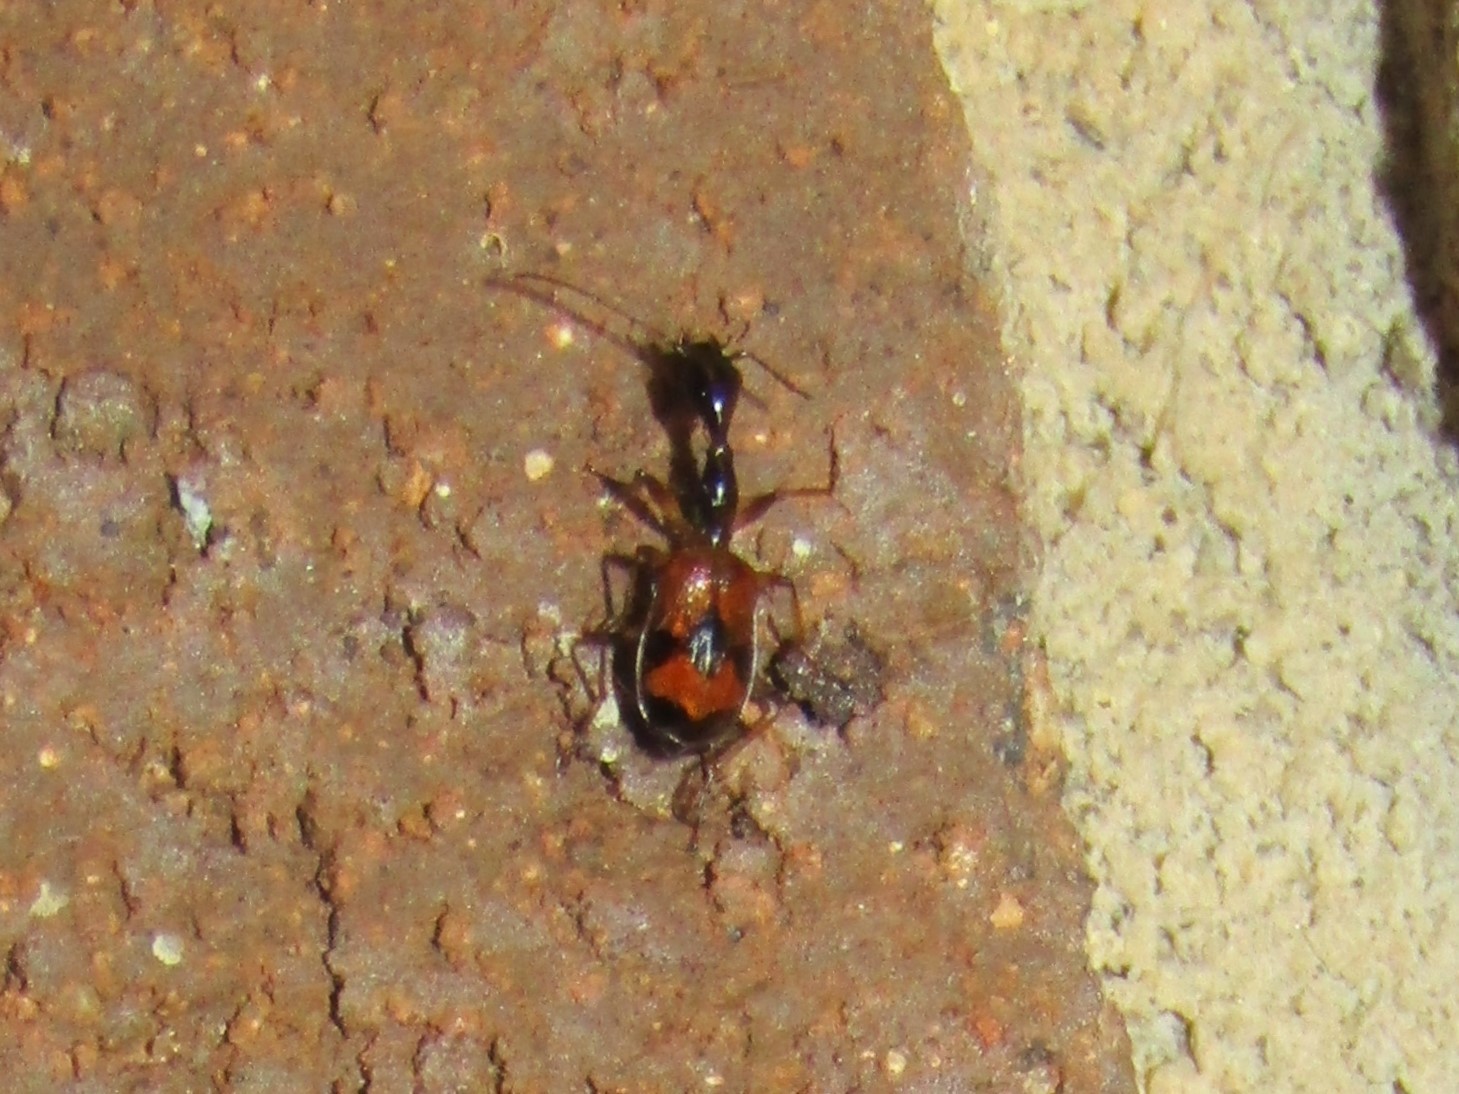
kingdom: Animalia
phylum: Arthropoda
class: Insecta
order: Coleoptera
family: Carabidae
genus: Colliuris
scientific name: Colliuris pensylvanica
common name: Long-necked ground beetle
